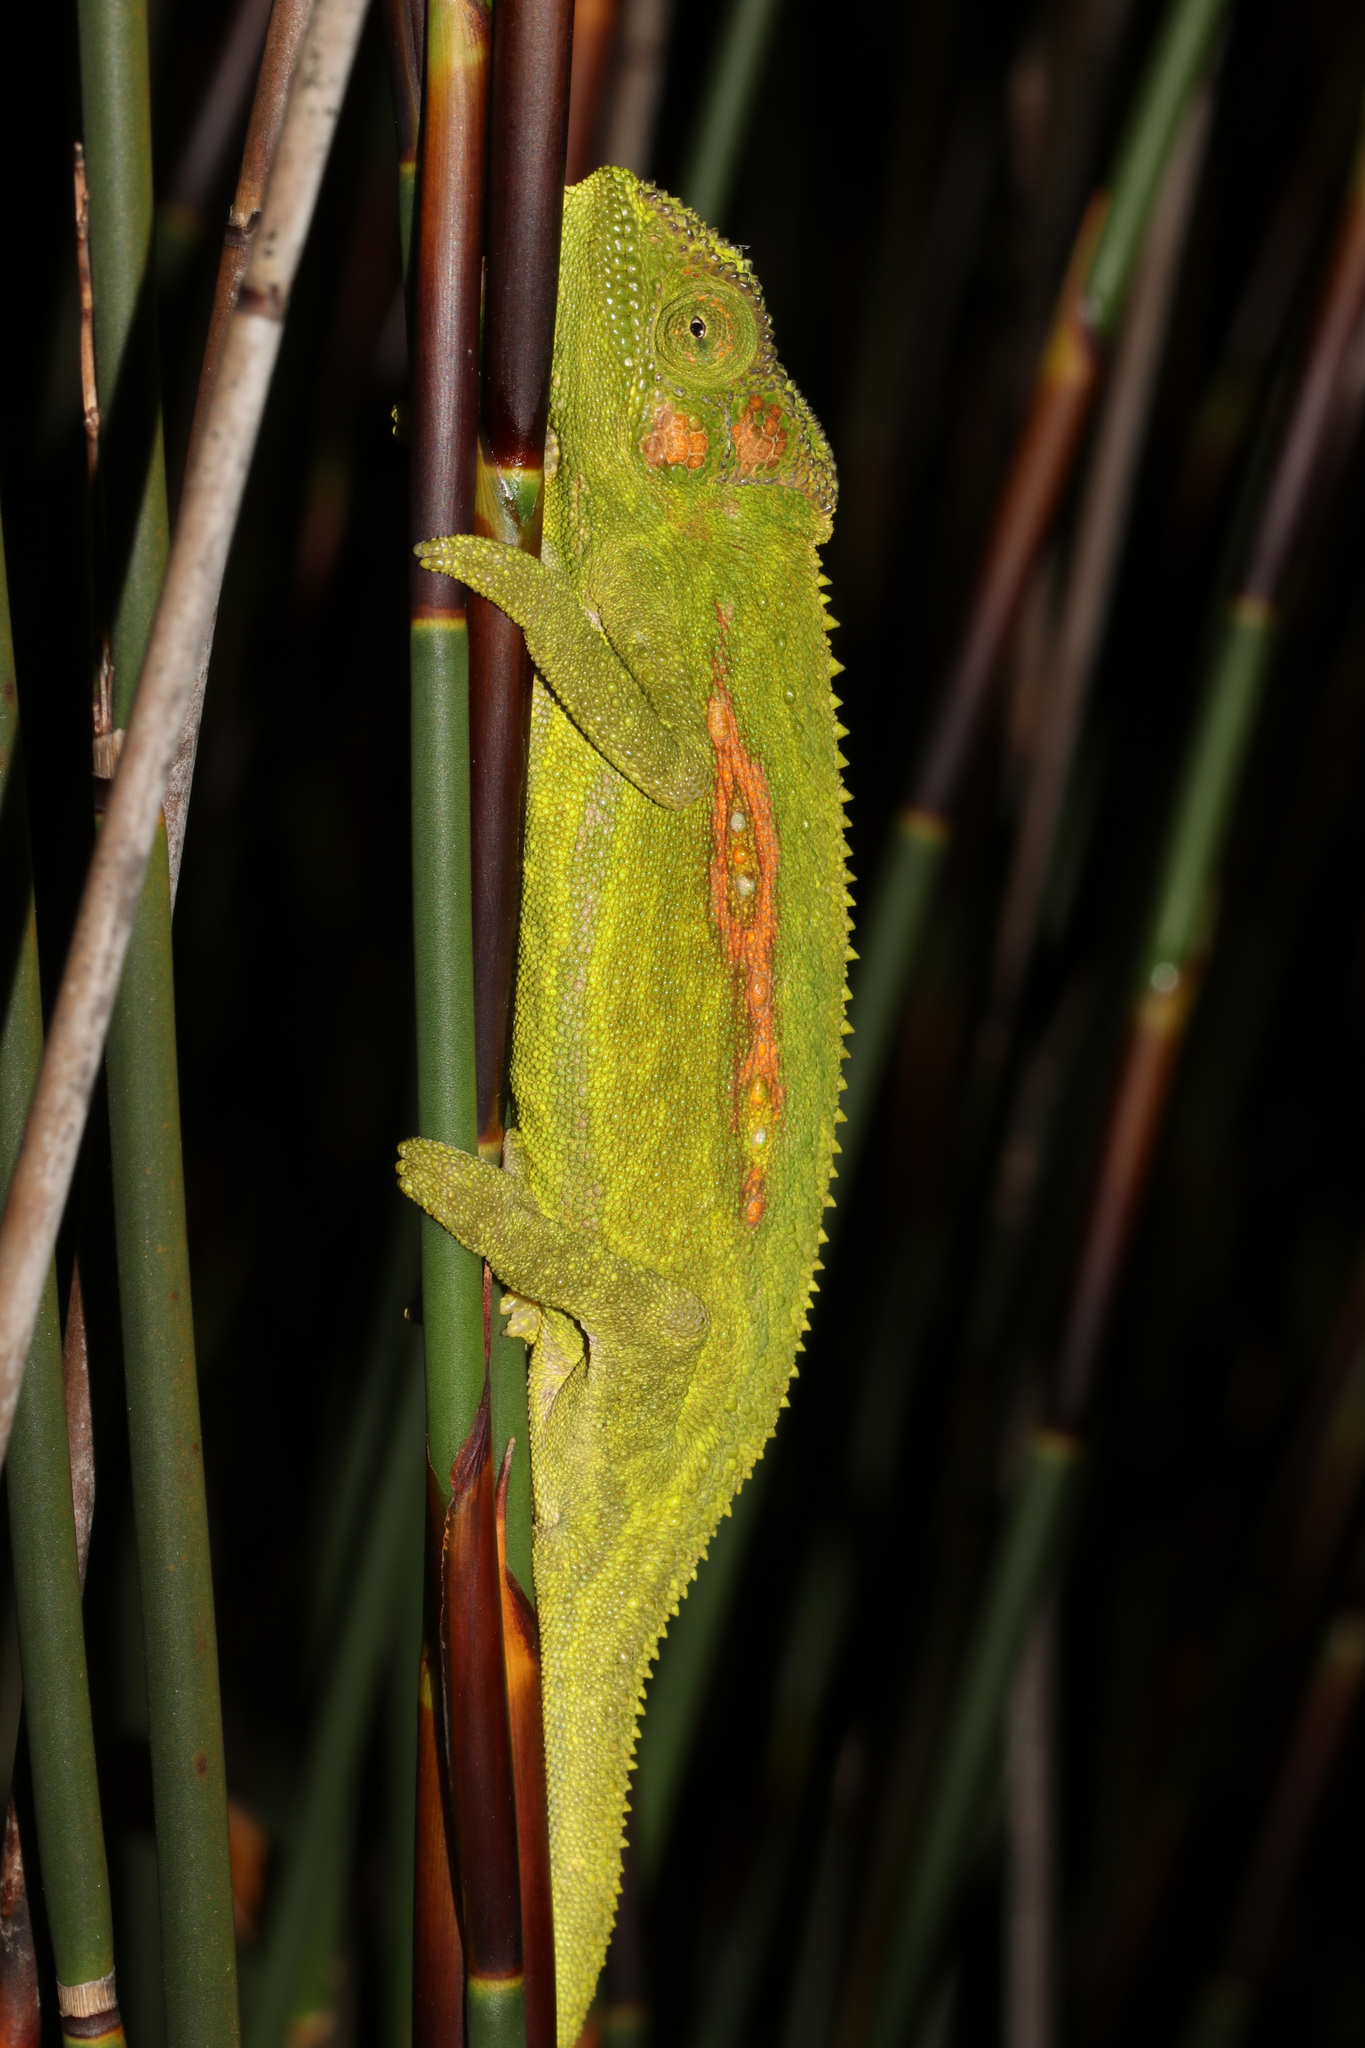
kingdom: Animalia
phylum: Chordata
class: Squamata
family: Chamaeleonidae
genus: Bradypodion
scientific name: Bradypodion pumilum
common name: Cape dwarf chameleon
